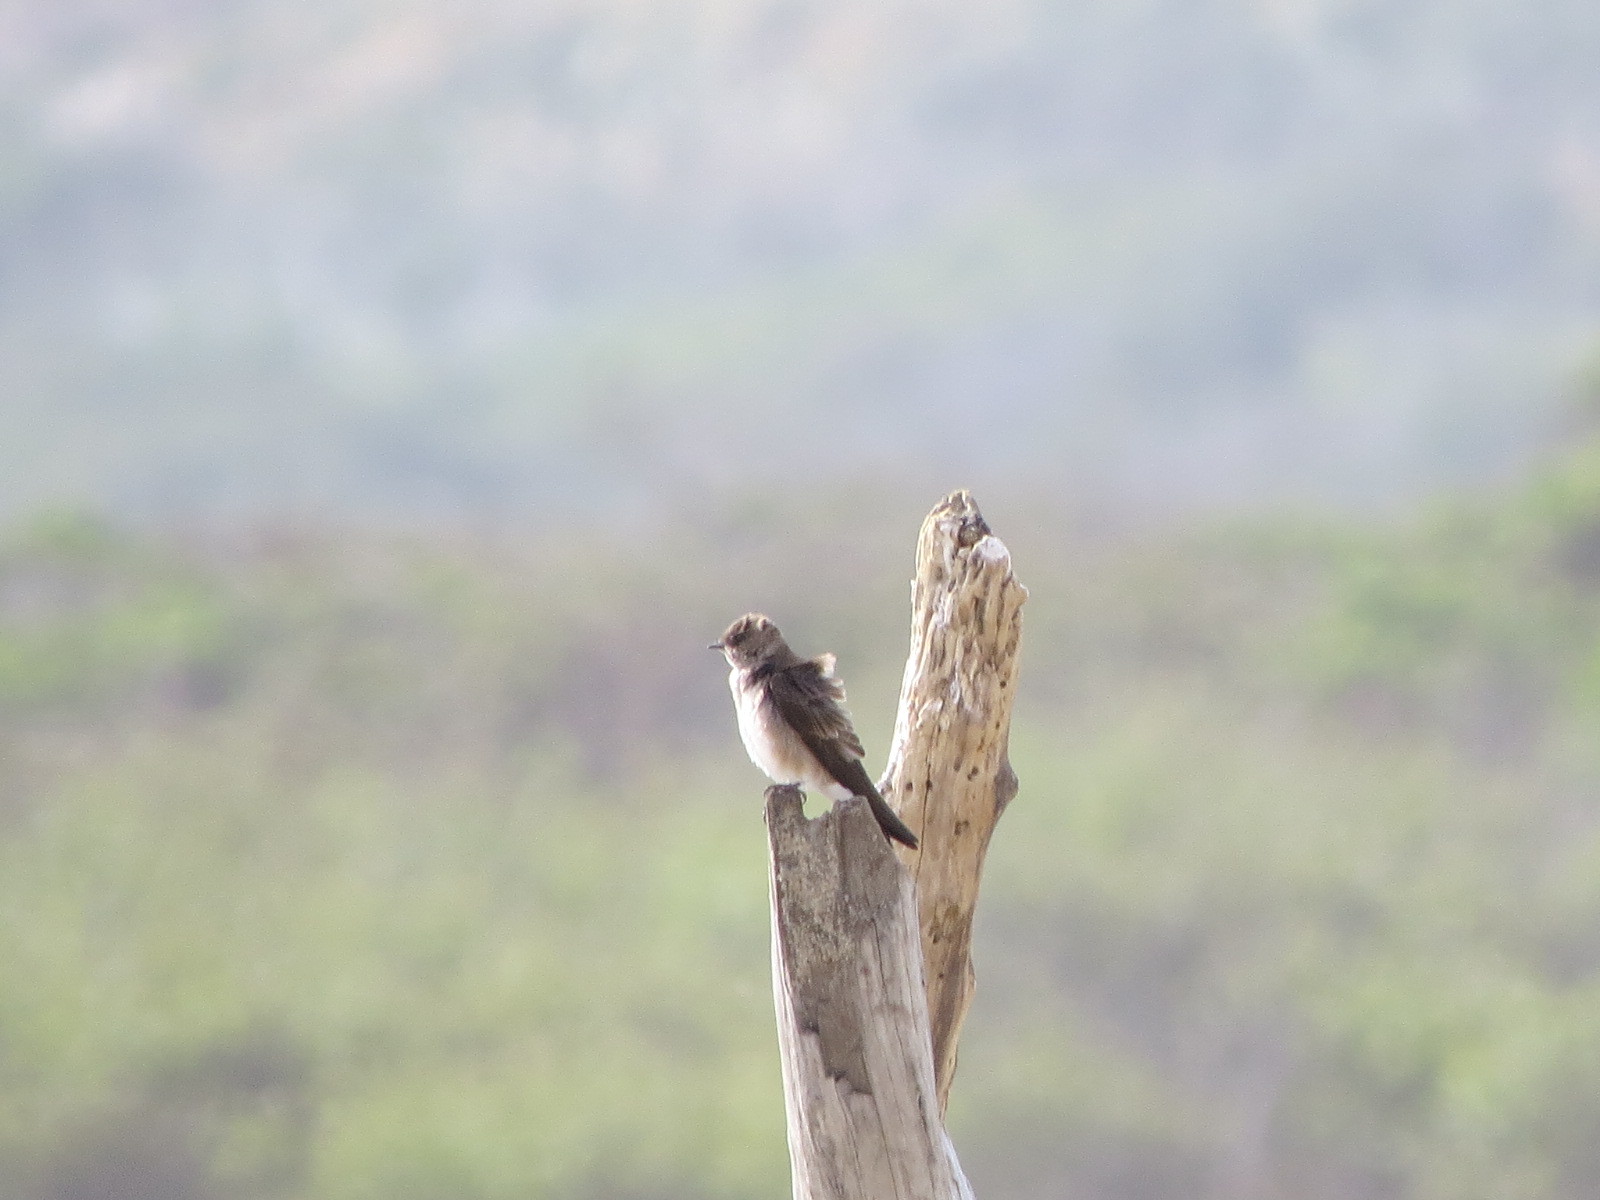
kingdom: Animalia
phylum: Chordata
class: Aves
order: Passeriformes
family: Hirundinidae
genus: Stelgidopteryx
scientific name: Stelgidopteryx serripennis
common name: Northern rough-winged swallow
